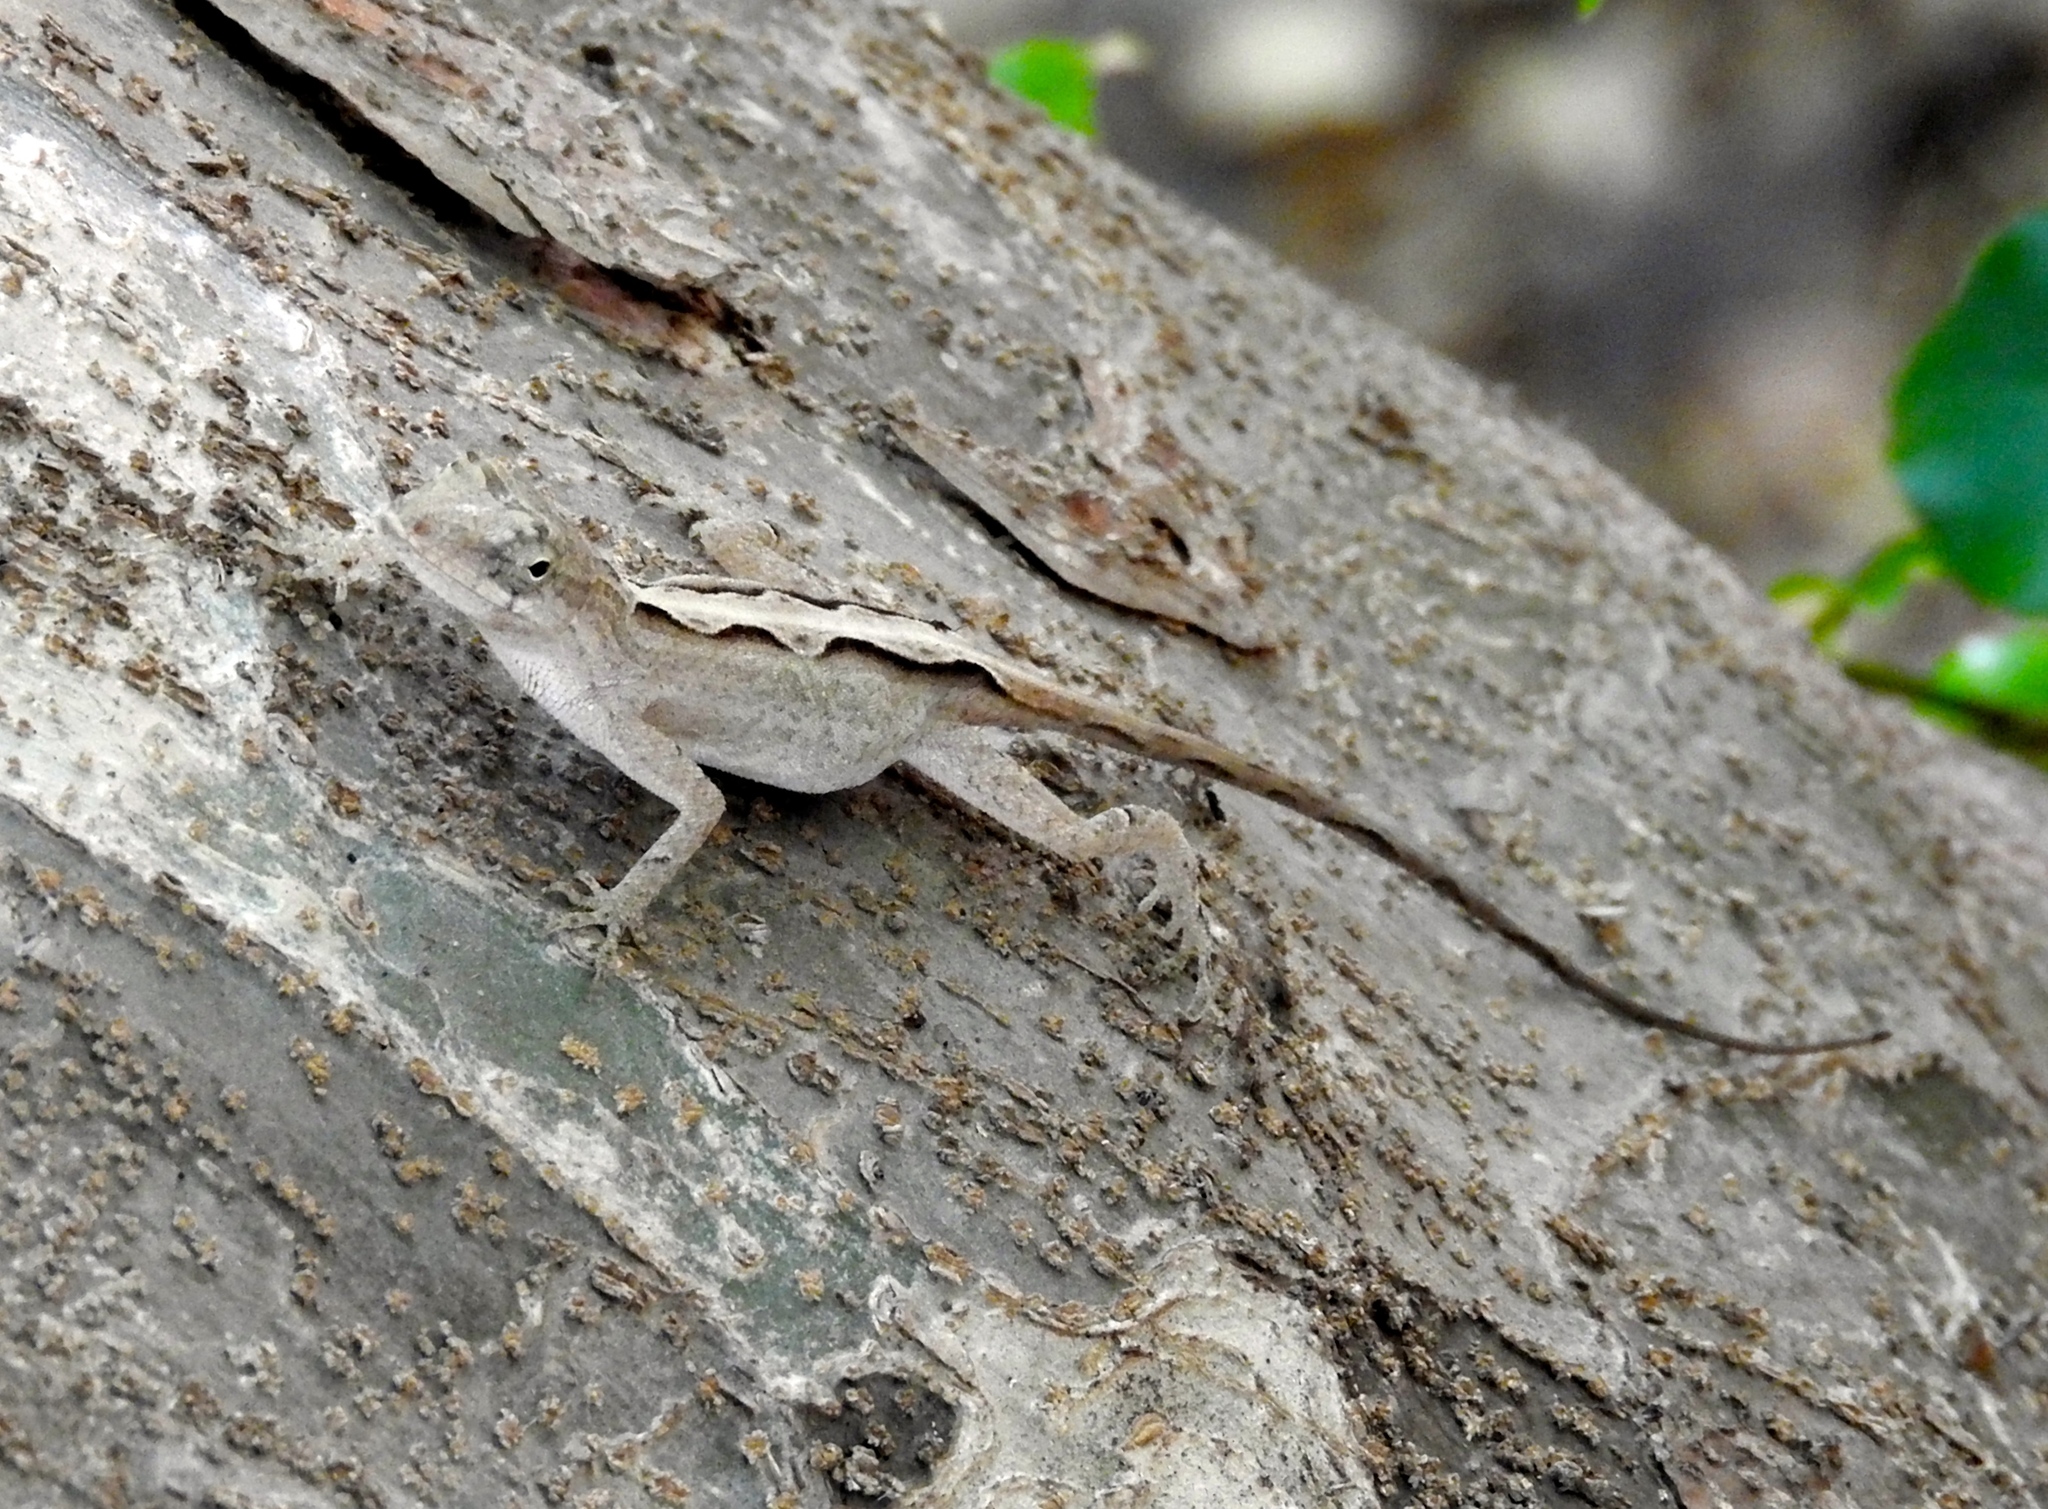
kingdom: Animalia
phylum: Chordata
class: Squamata
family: Dactyloidae
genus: Anolis
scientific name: Anolis nebulosus
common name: Clouded anole
